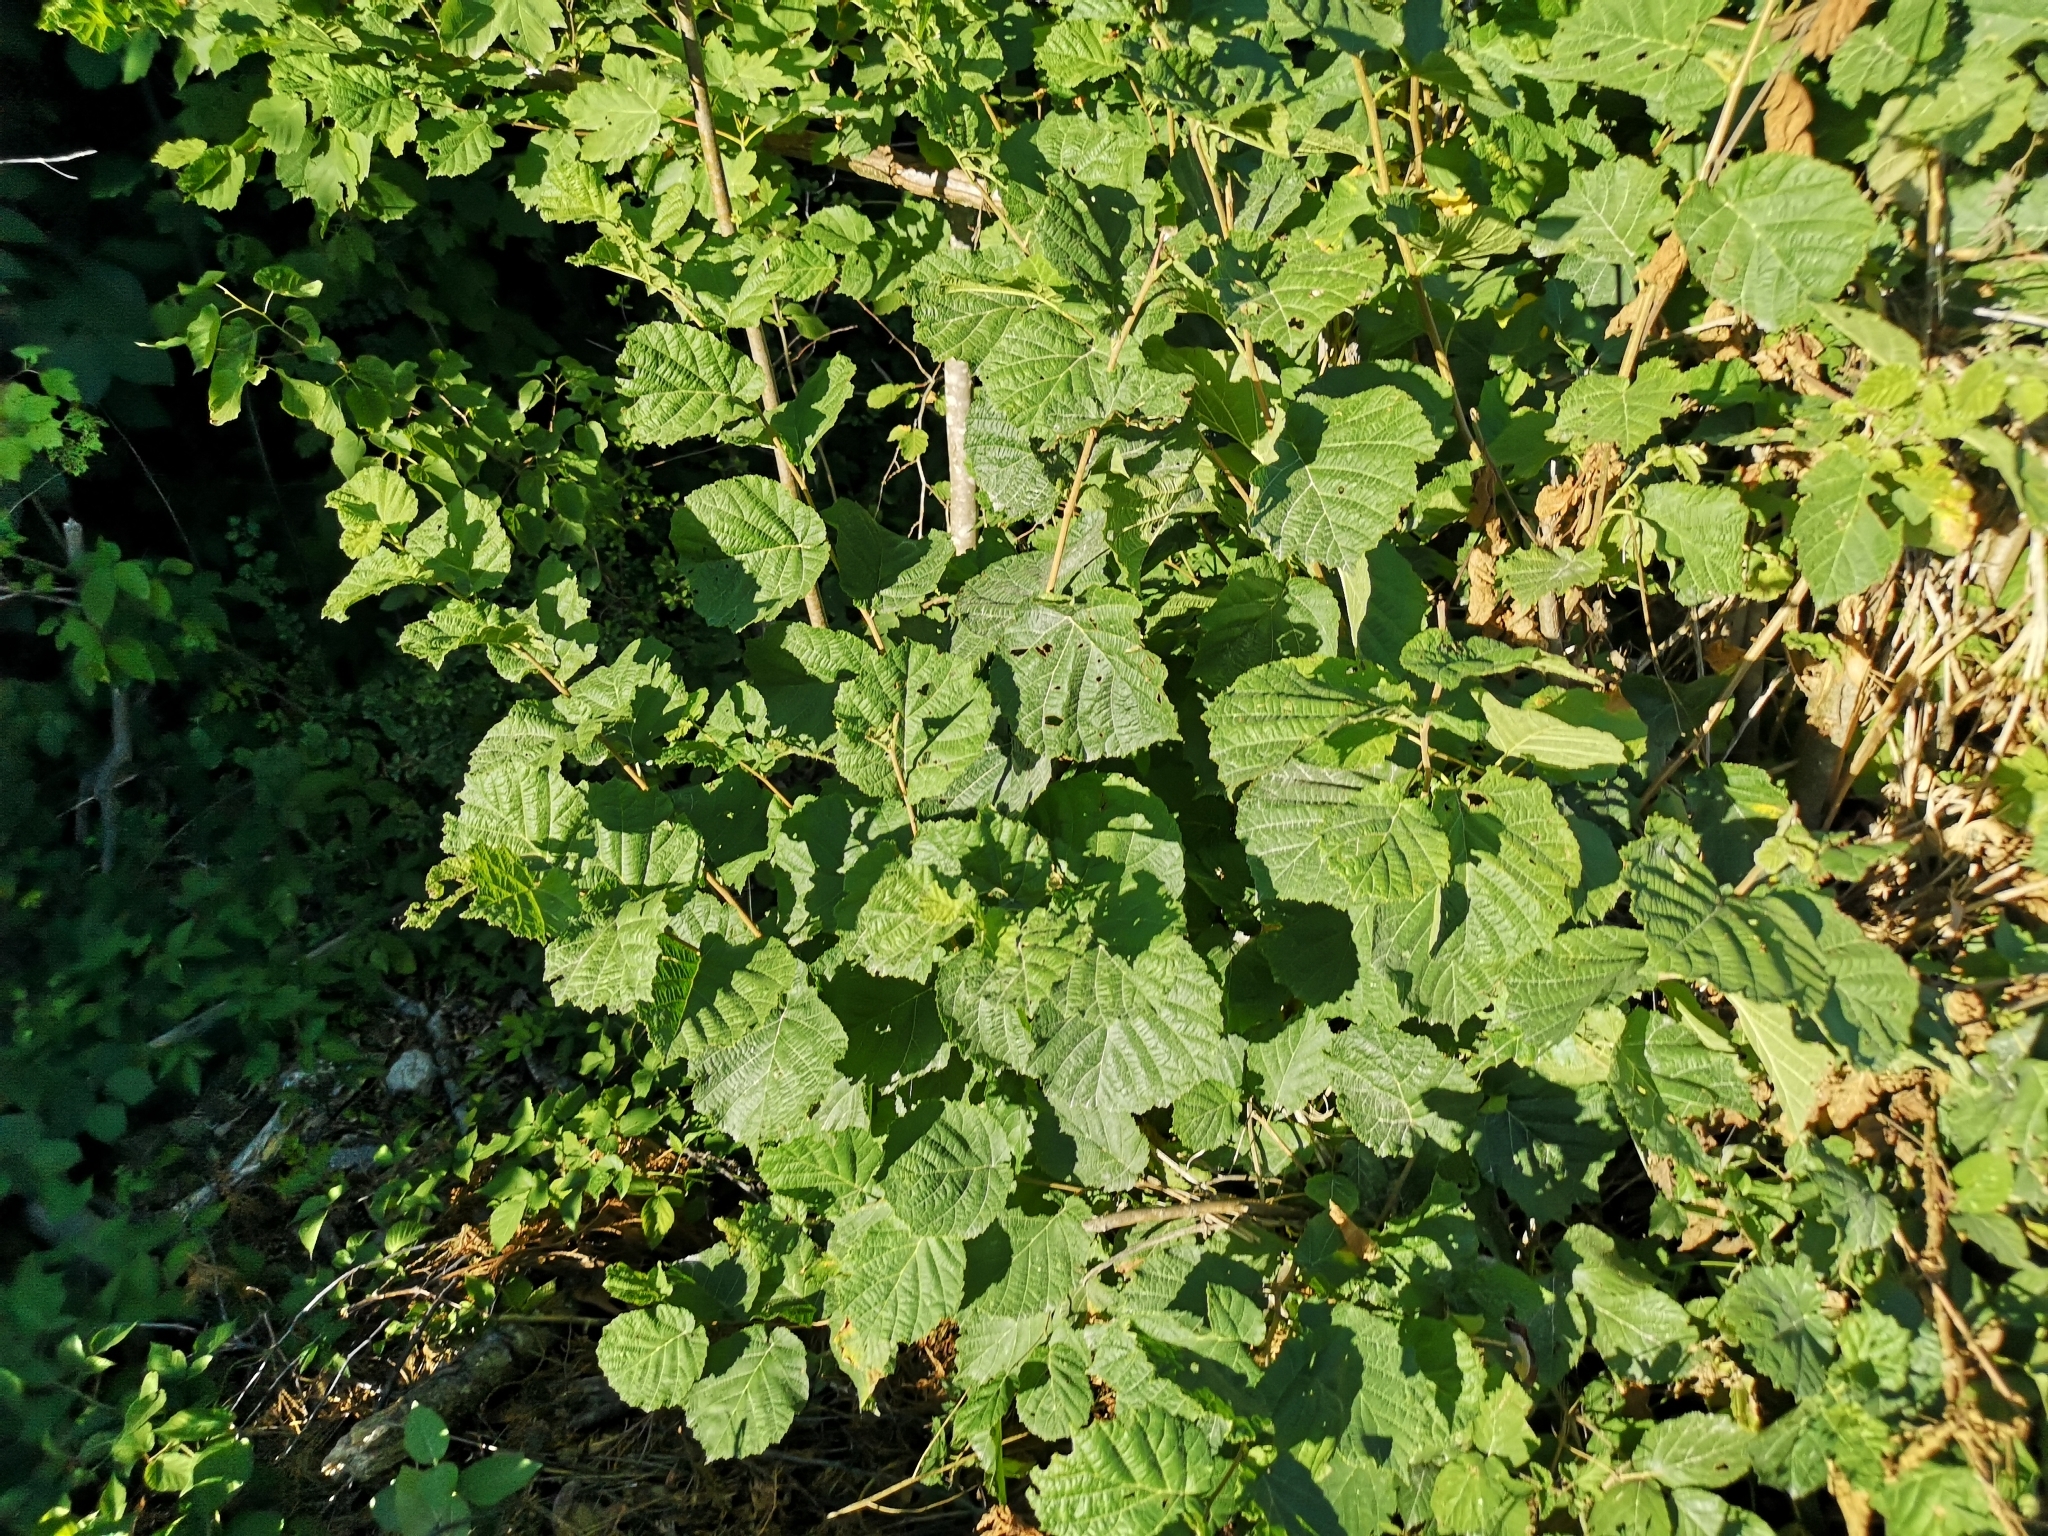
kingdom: Plantae
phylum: Tracheophyta
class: Magnoliopsida
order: Fagales
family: Betulaceae
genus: Corylus
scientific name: Corylus avellana
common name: European hazel
